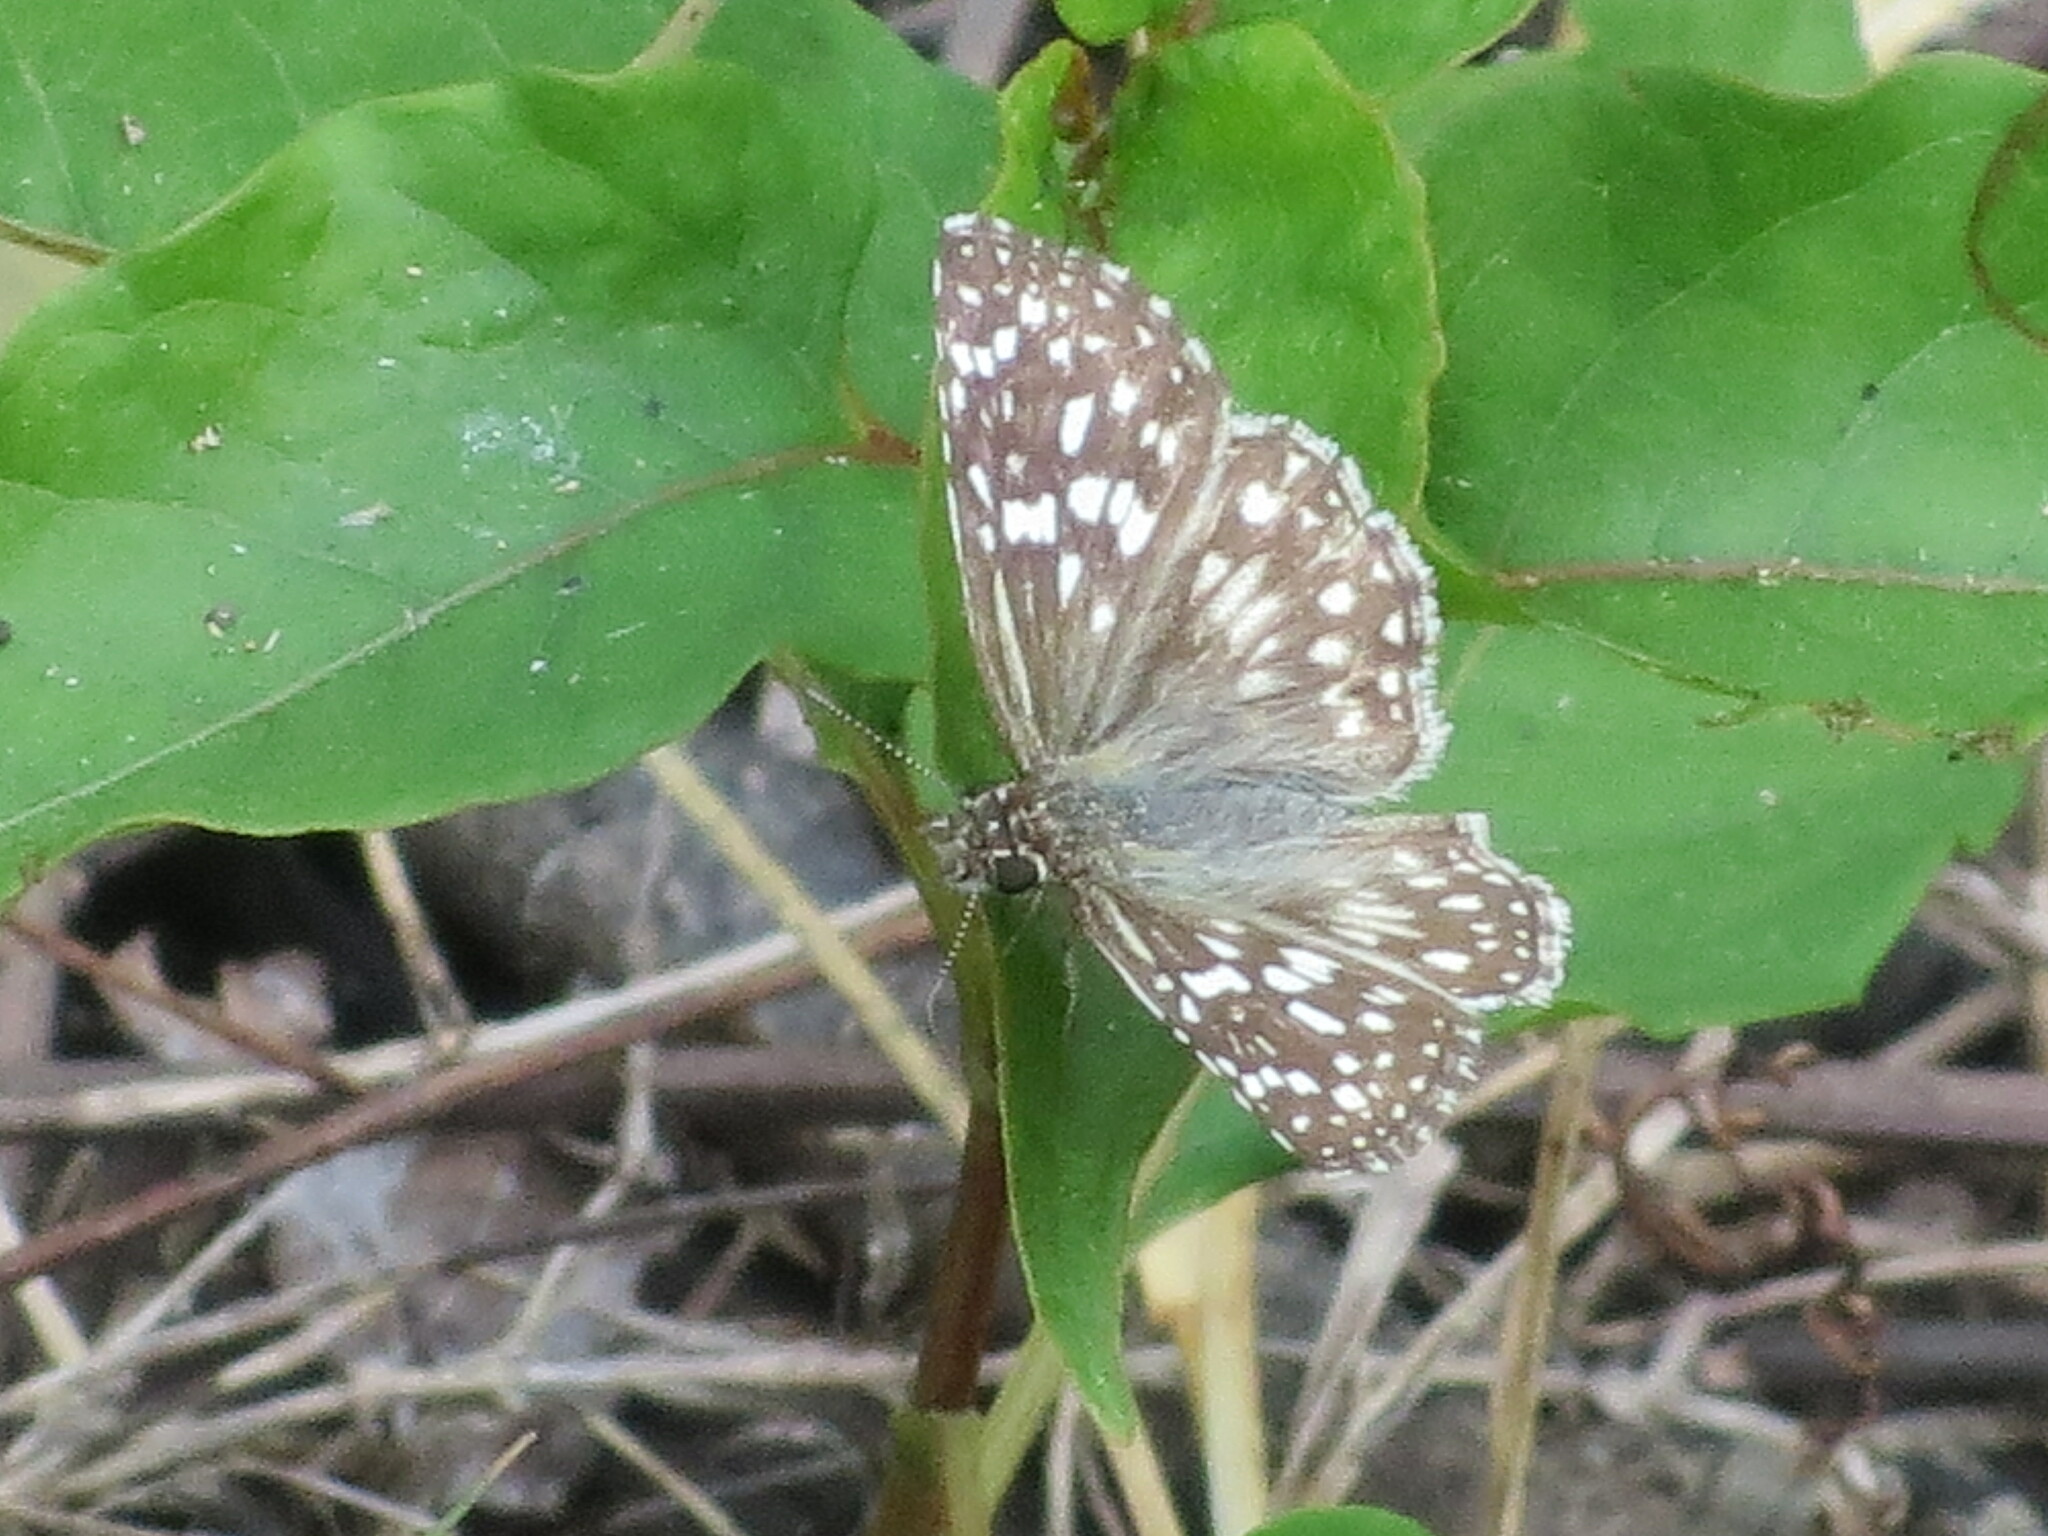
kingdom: Animalia
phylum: Arthropoda
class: Insecta
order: Lepidoptera
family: Hesperiidae
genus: Pyrgus
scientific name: Pyrgus oileus
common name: Tropical checkered-skipper
